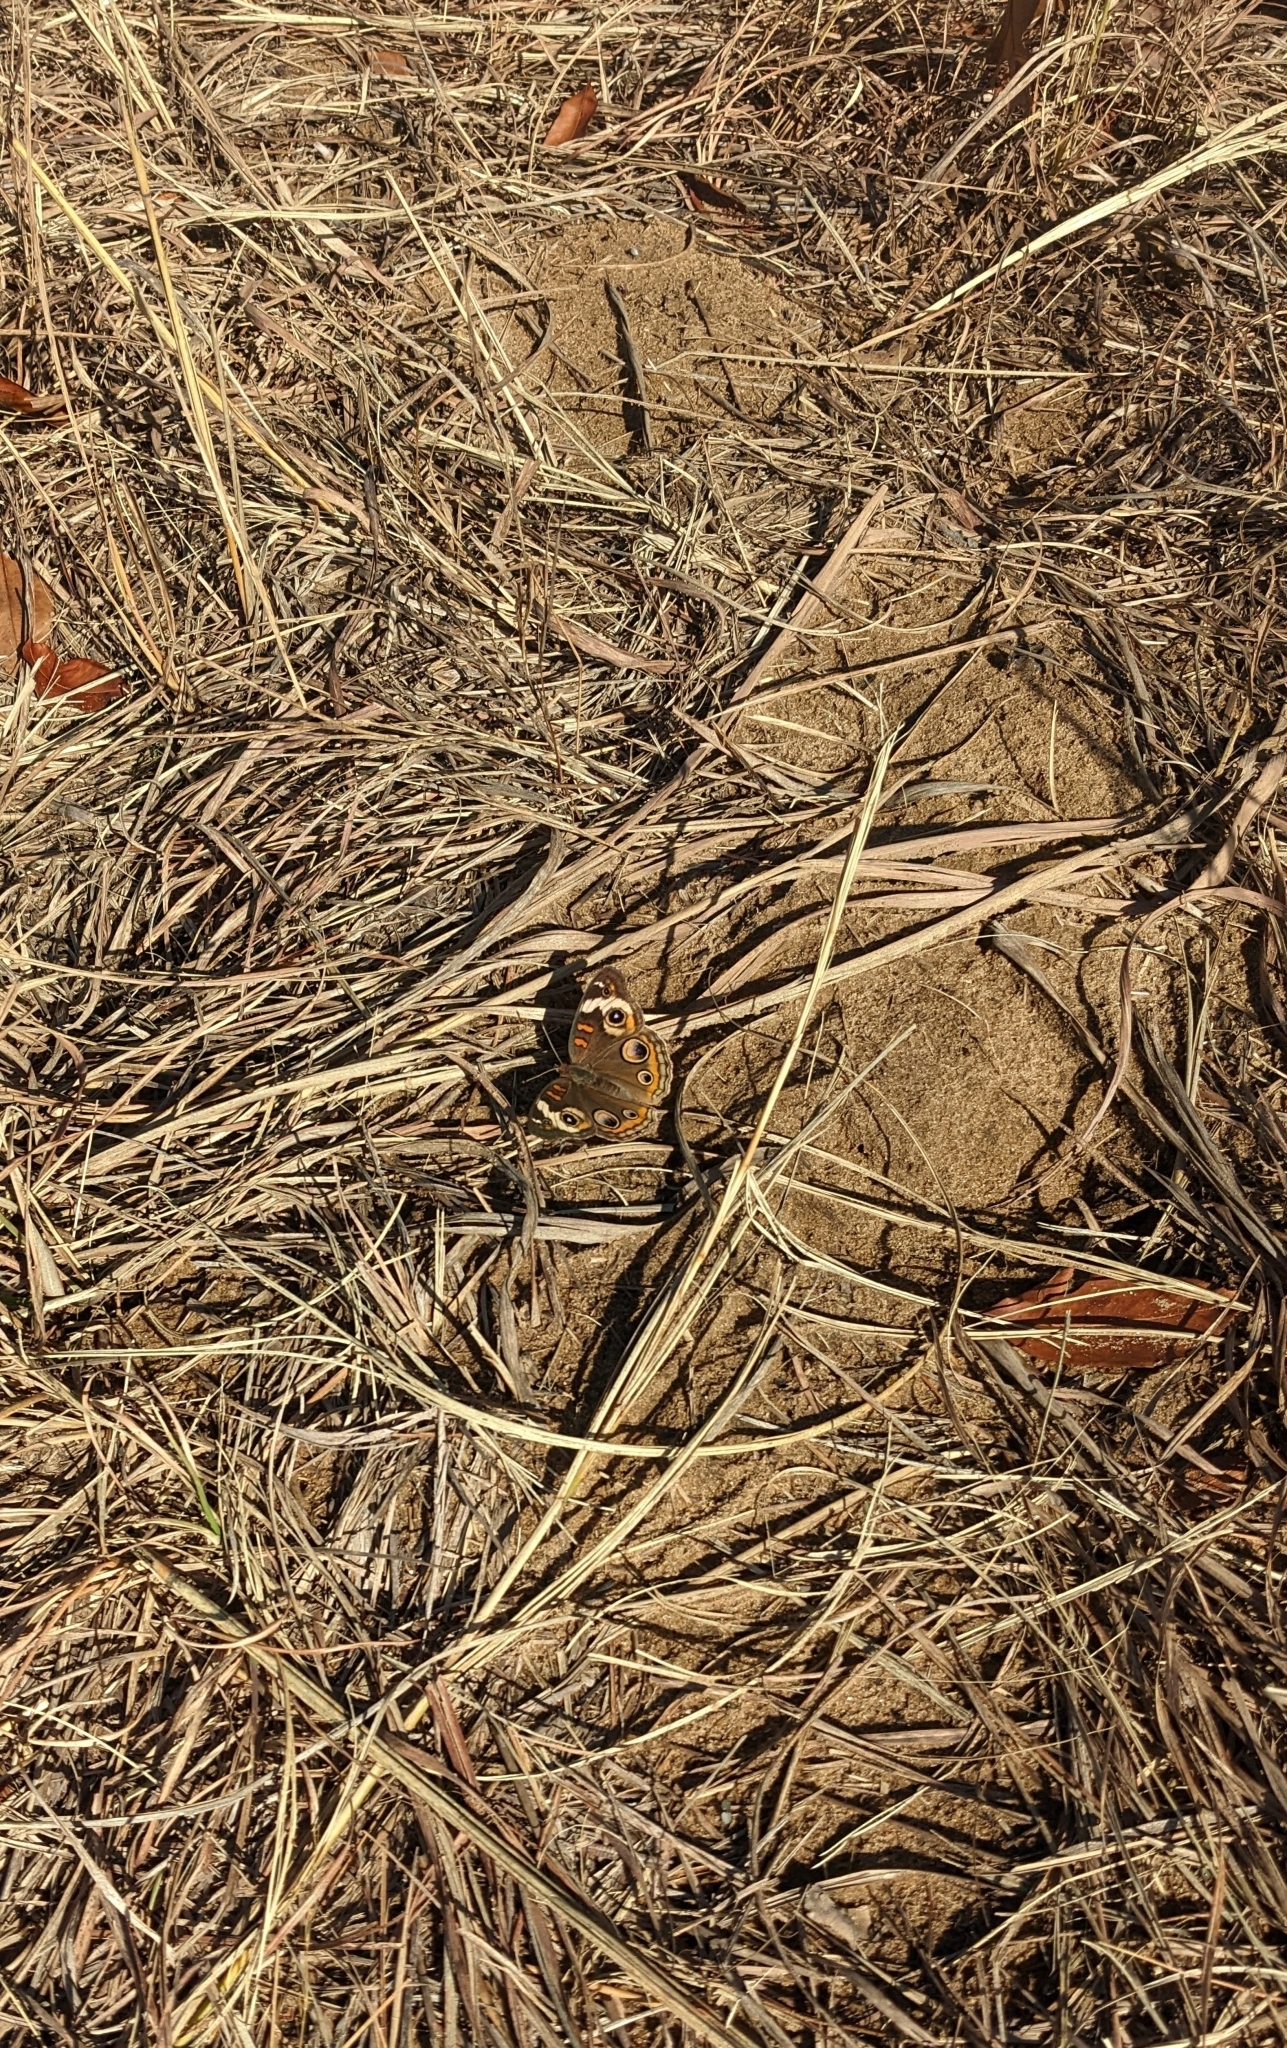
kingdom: Animalia
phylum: Arthropoda
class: Insecta
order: Lepidoptera
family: Nymphalidae
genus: Junonia
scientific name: Junonia coenia
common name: Common buckeye
